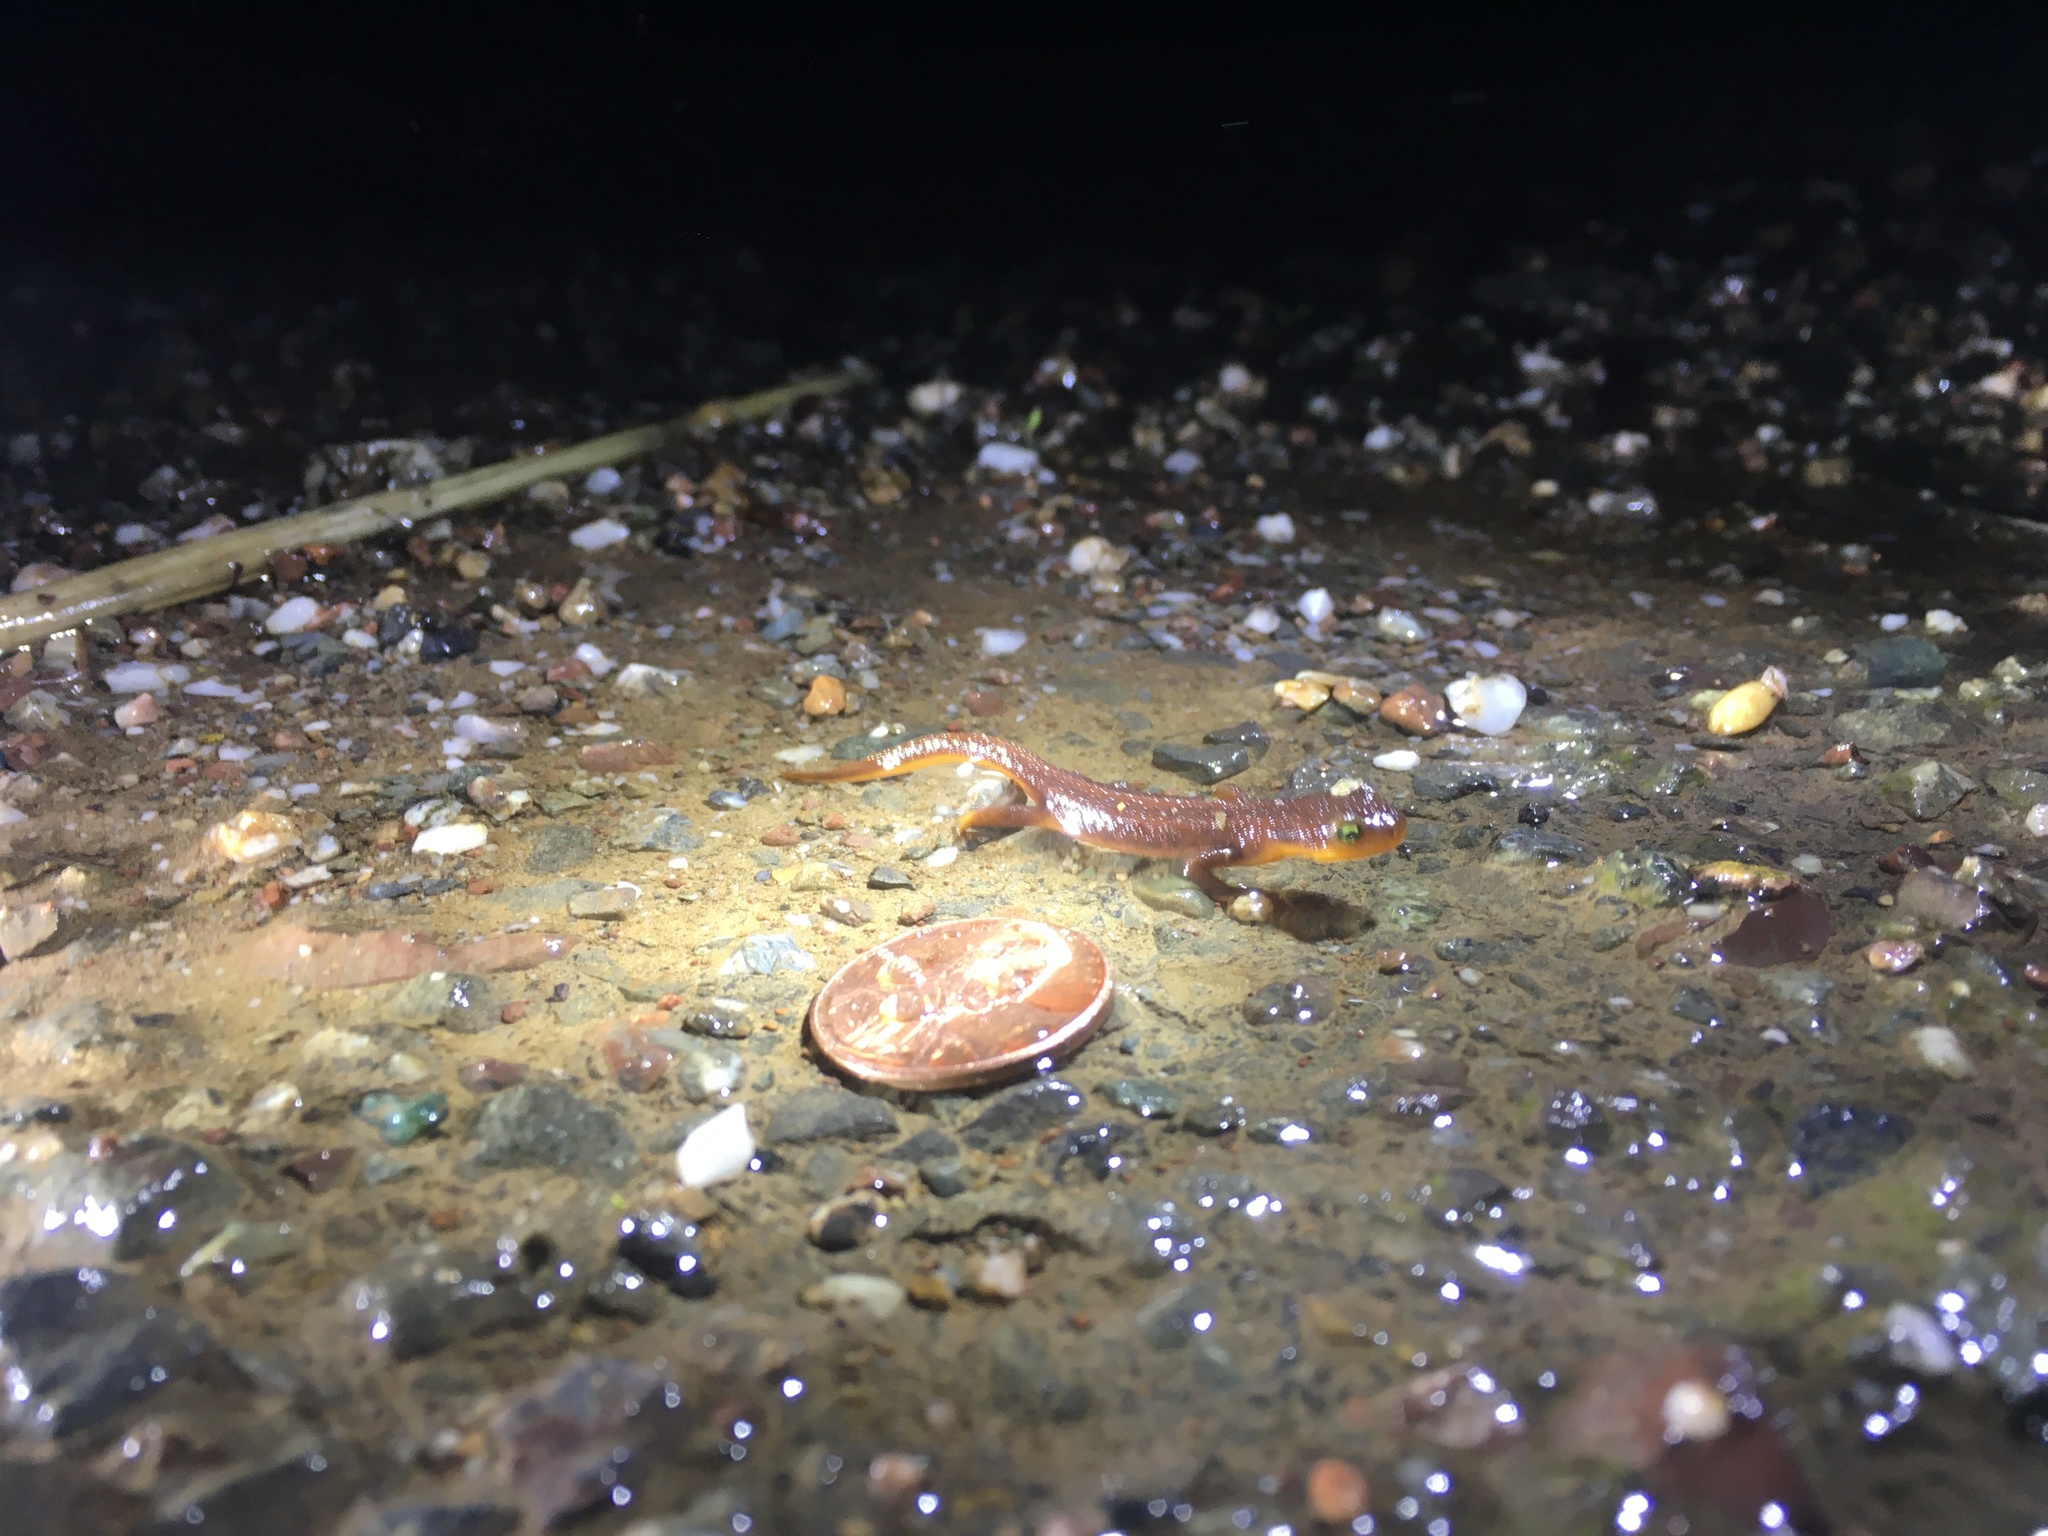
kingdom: Animalia
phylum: Chordata
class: Amphibia
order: Caudata
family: Salamandridae
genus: Taricha
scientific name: Taricha torosa
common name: California newt
